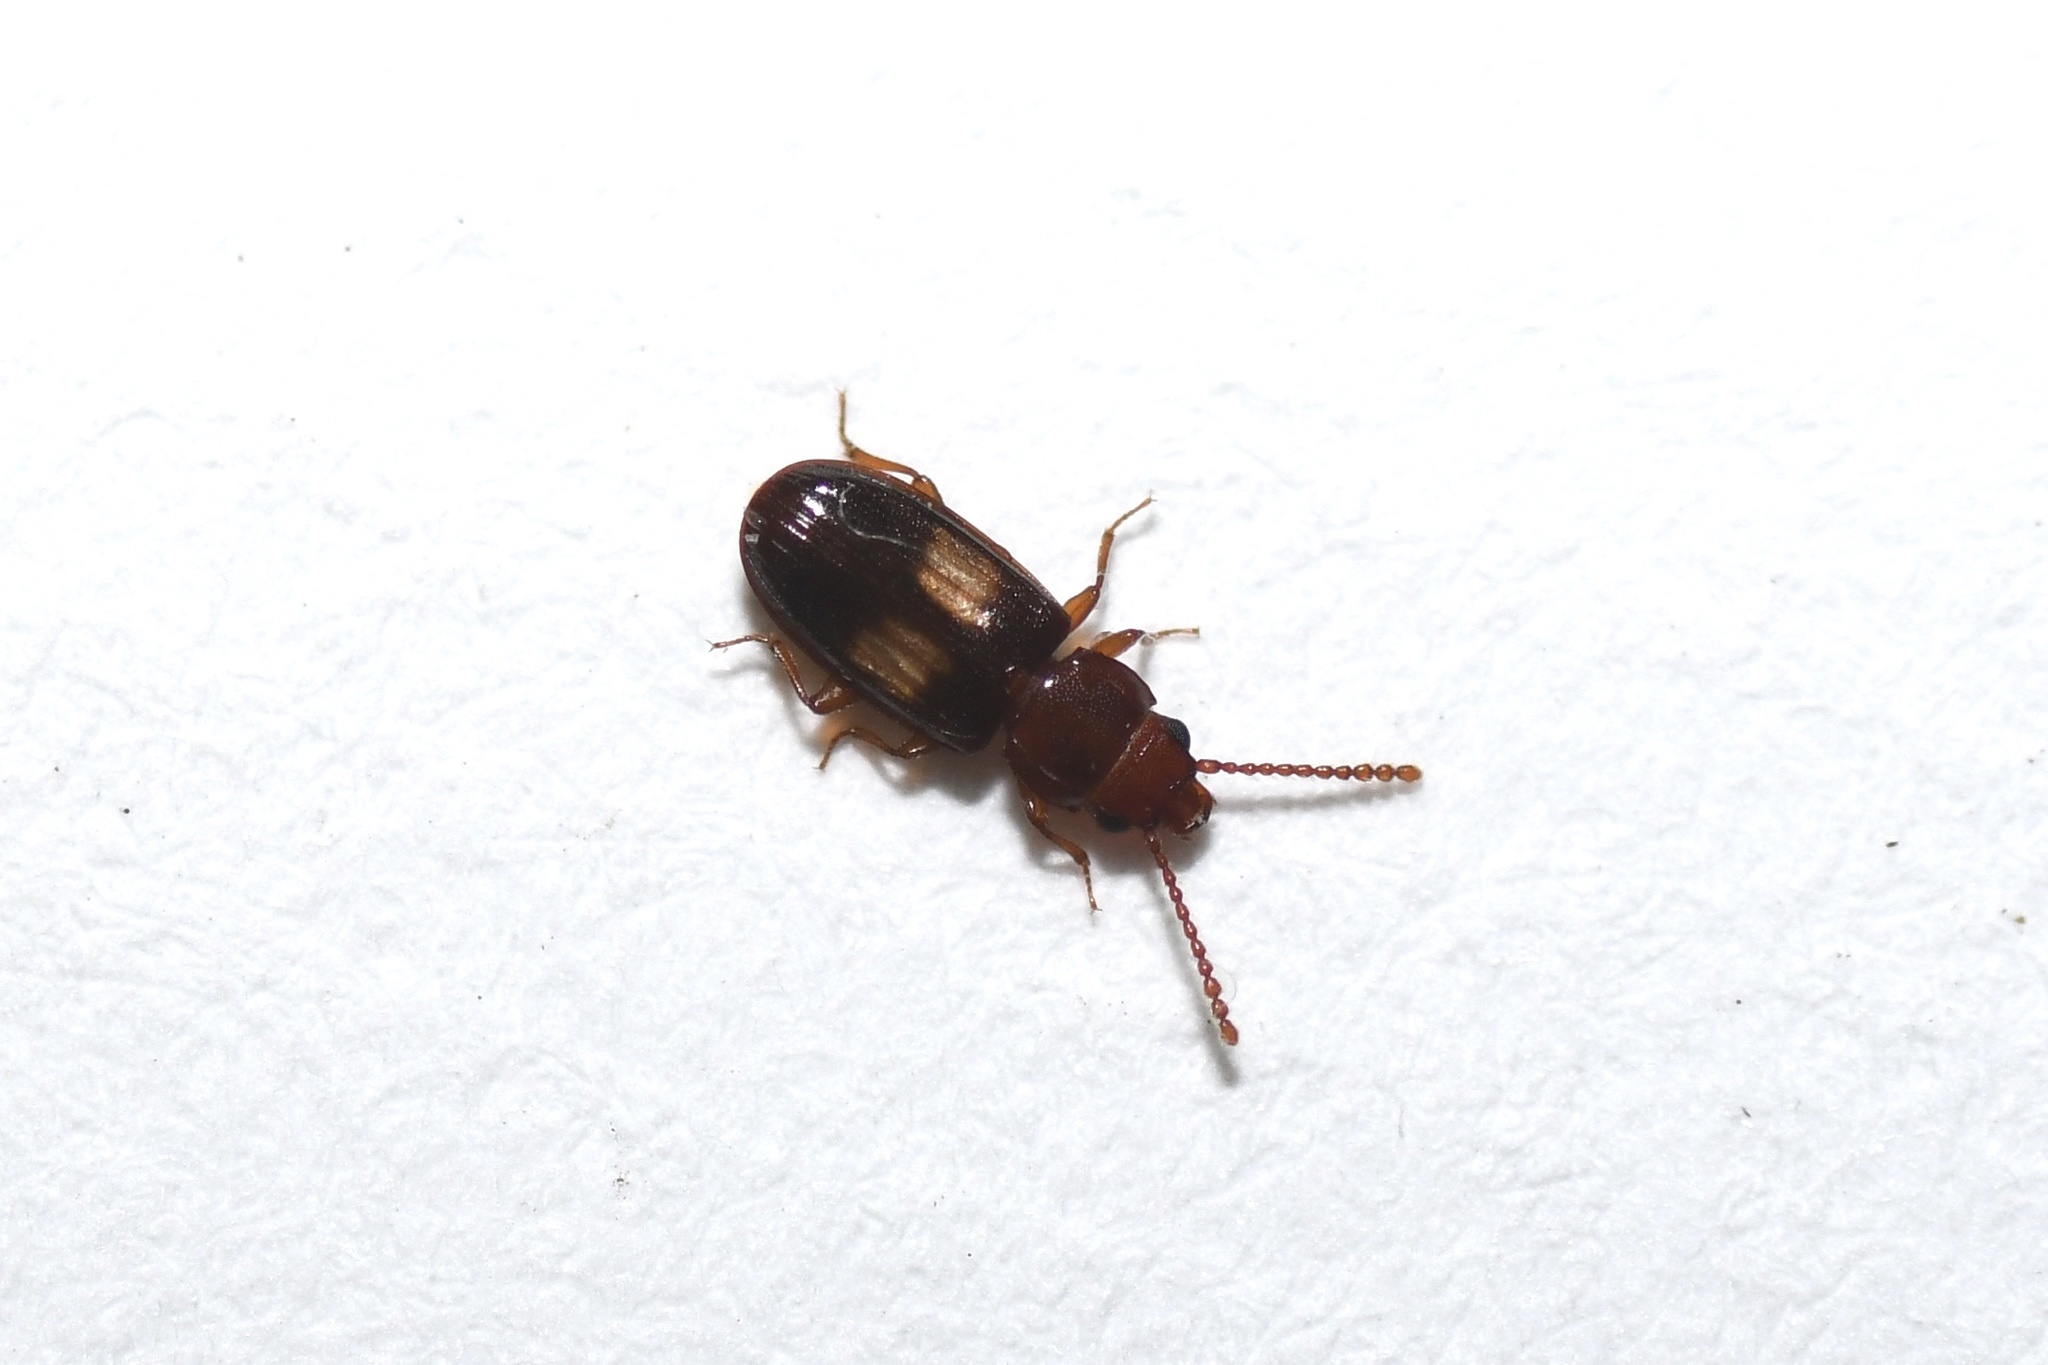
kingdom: Animalia
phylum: Arthropoda
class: Insecta
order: Coleoptera
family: Laemophloeidae
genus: Laemophloeus
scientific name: Laemophloeus fasciatus
